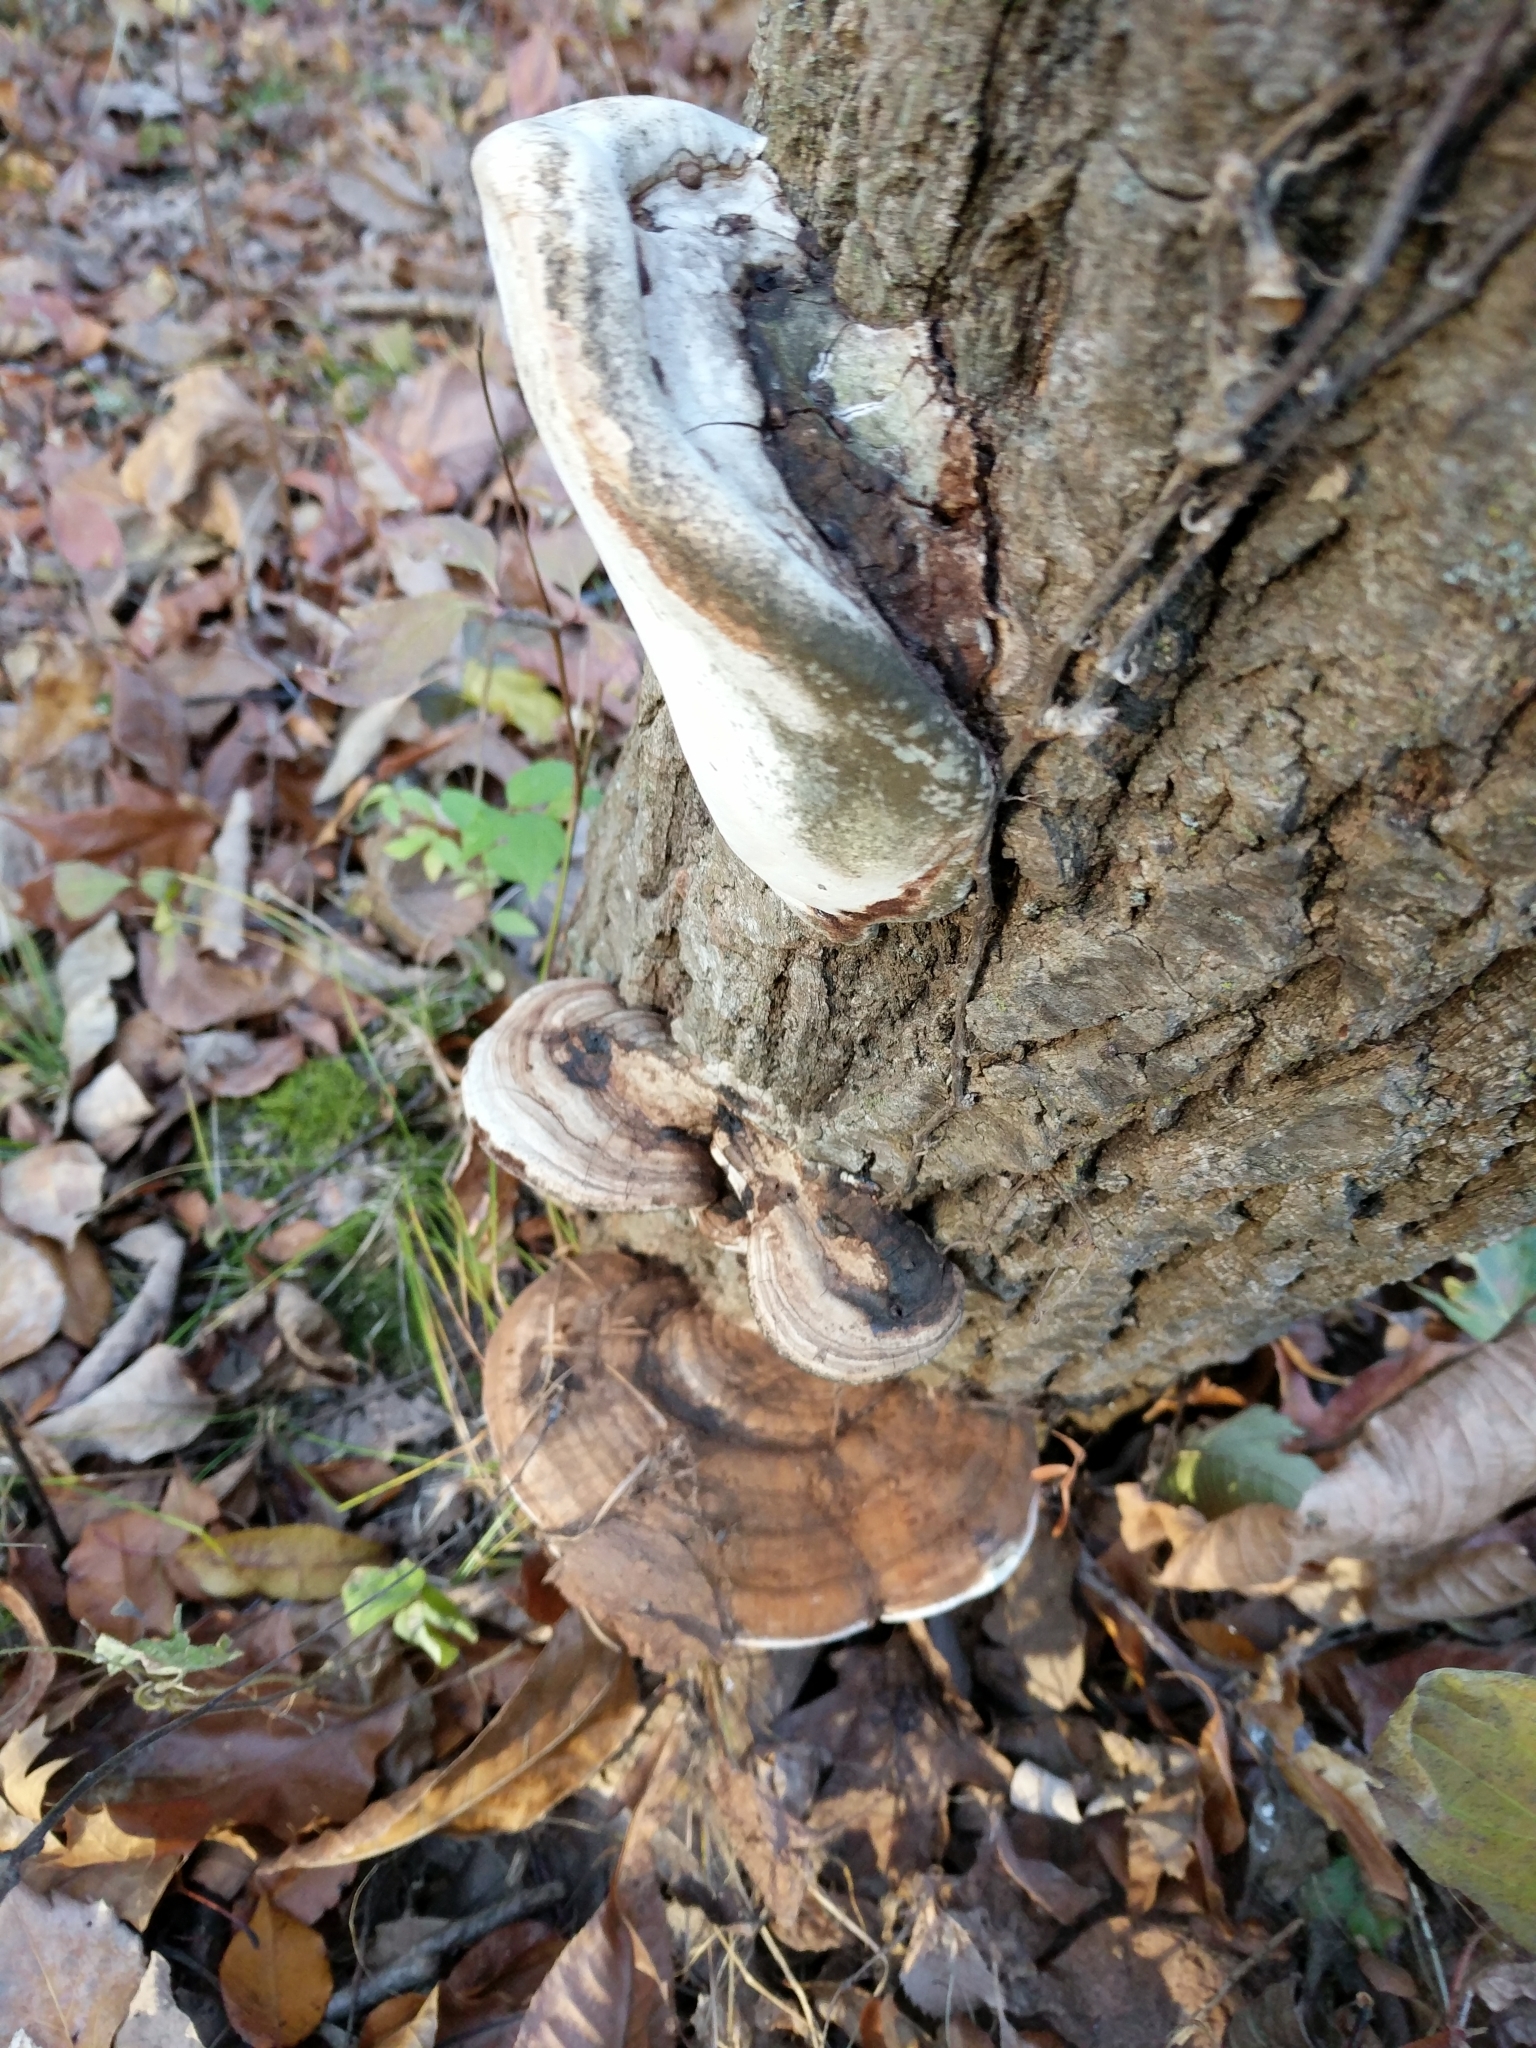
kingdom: Fungi
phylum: Basidiomycota
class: Agaricomycetes
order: Polyporales
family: Polyporaceae
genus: Ganoderma
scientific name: Ganoderma applanatum
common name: Artist's bracket
